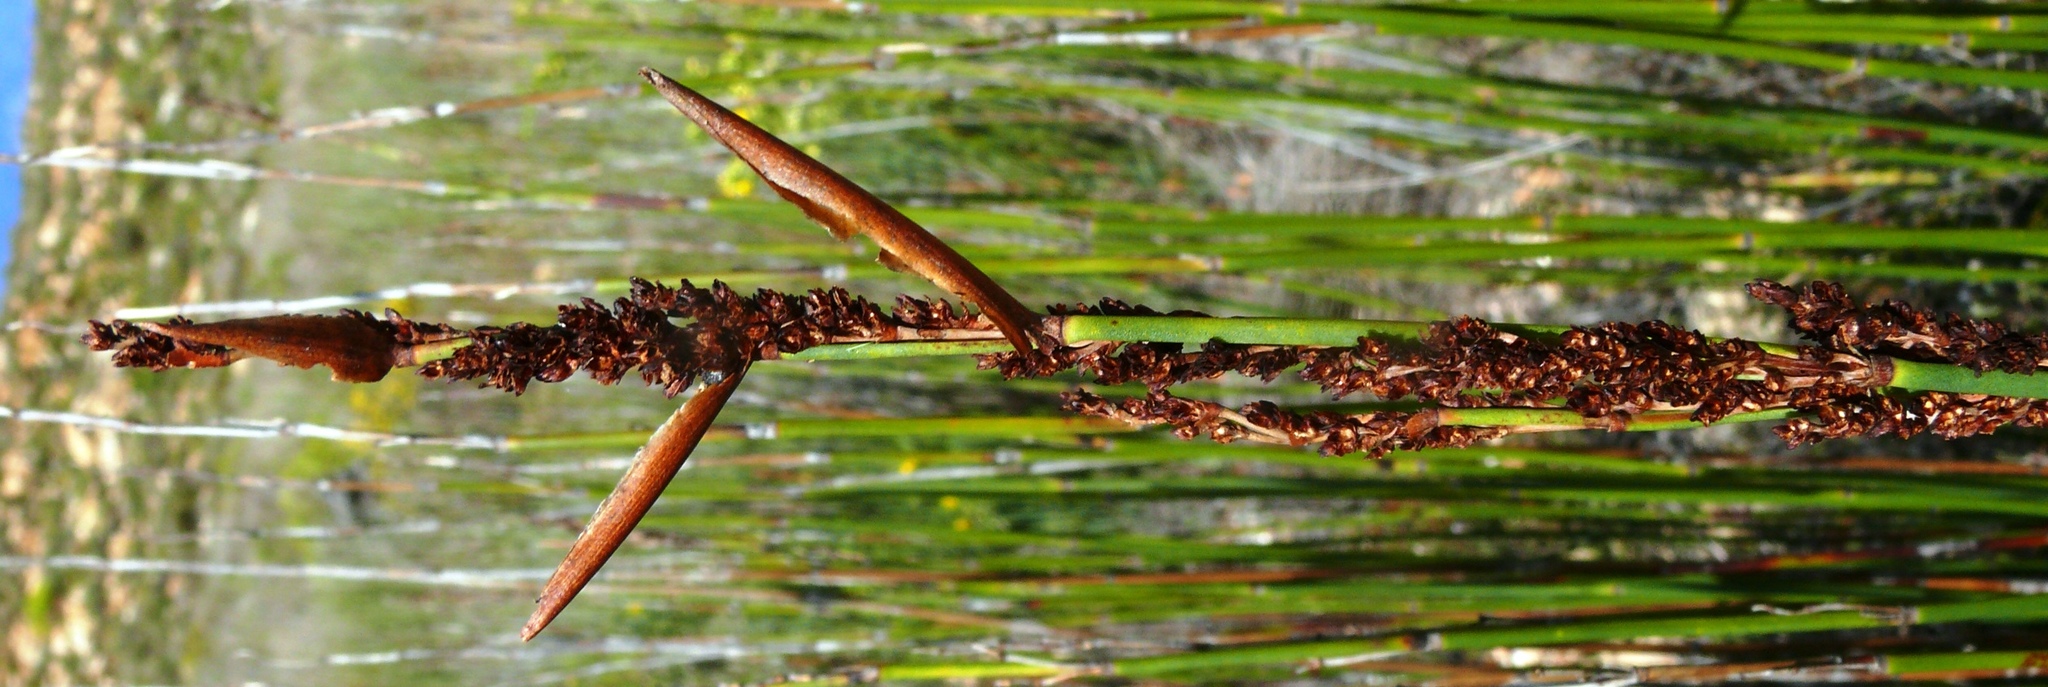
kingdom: Plantae
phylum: Tracheophyta
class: Liliopsida
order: Poales
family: Restionaceae
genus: Elegia
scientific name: Elegia galpinii
